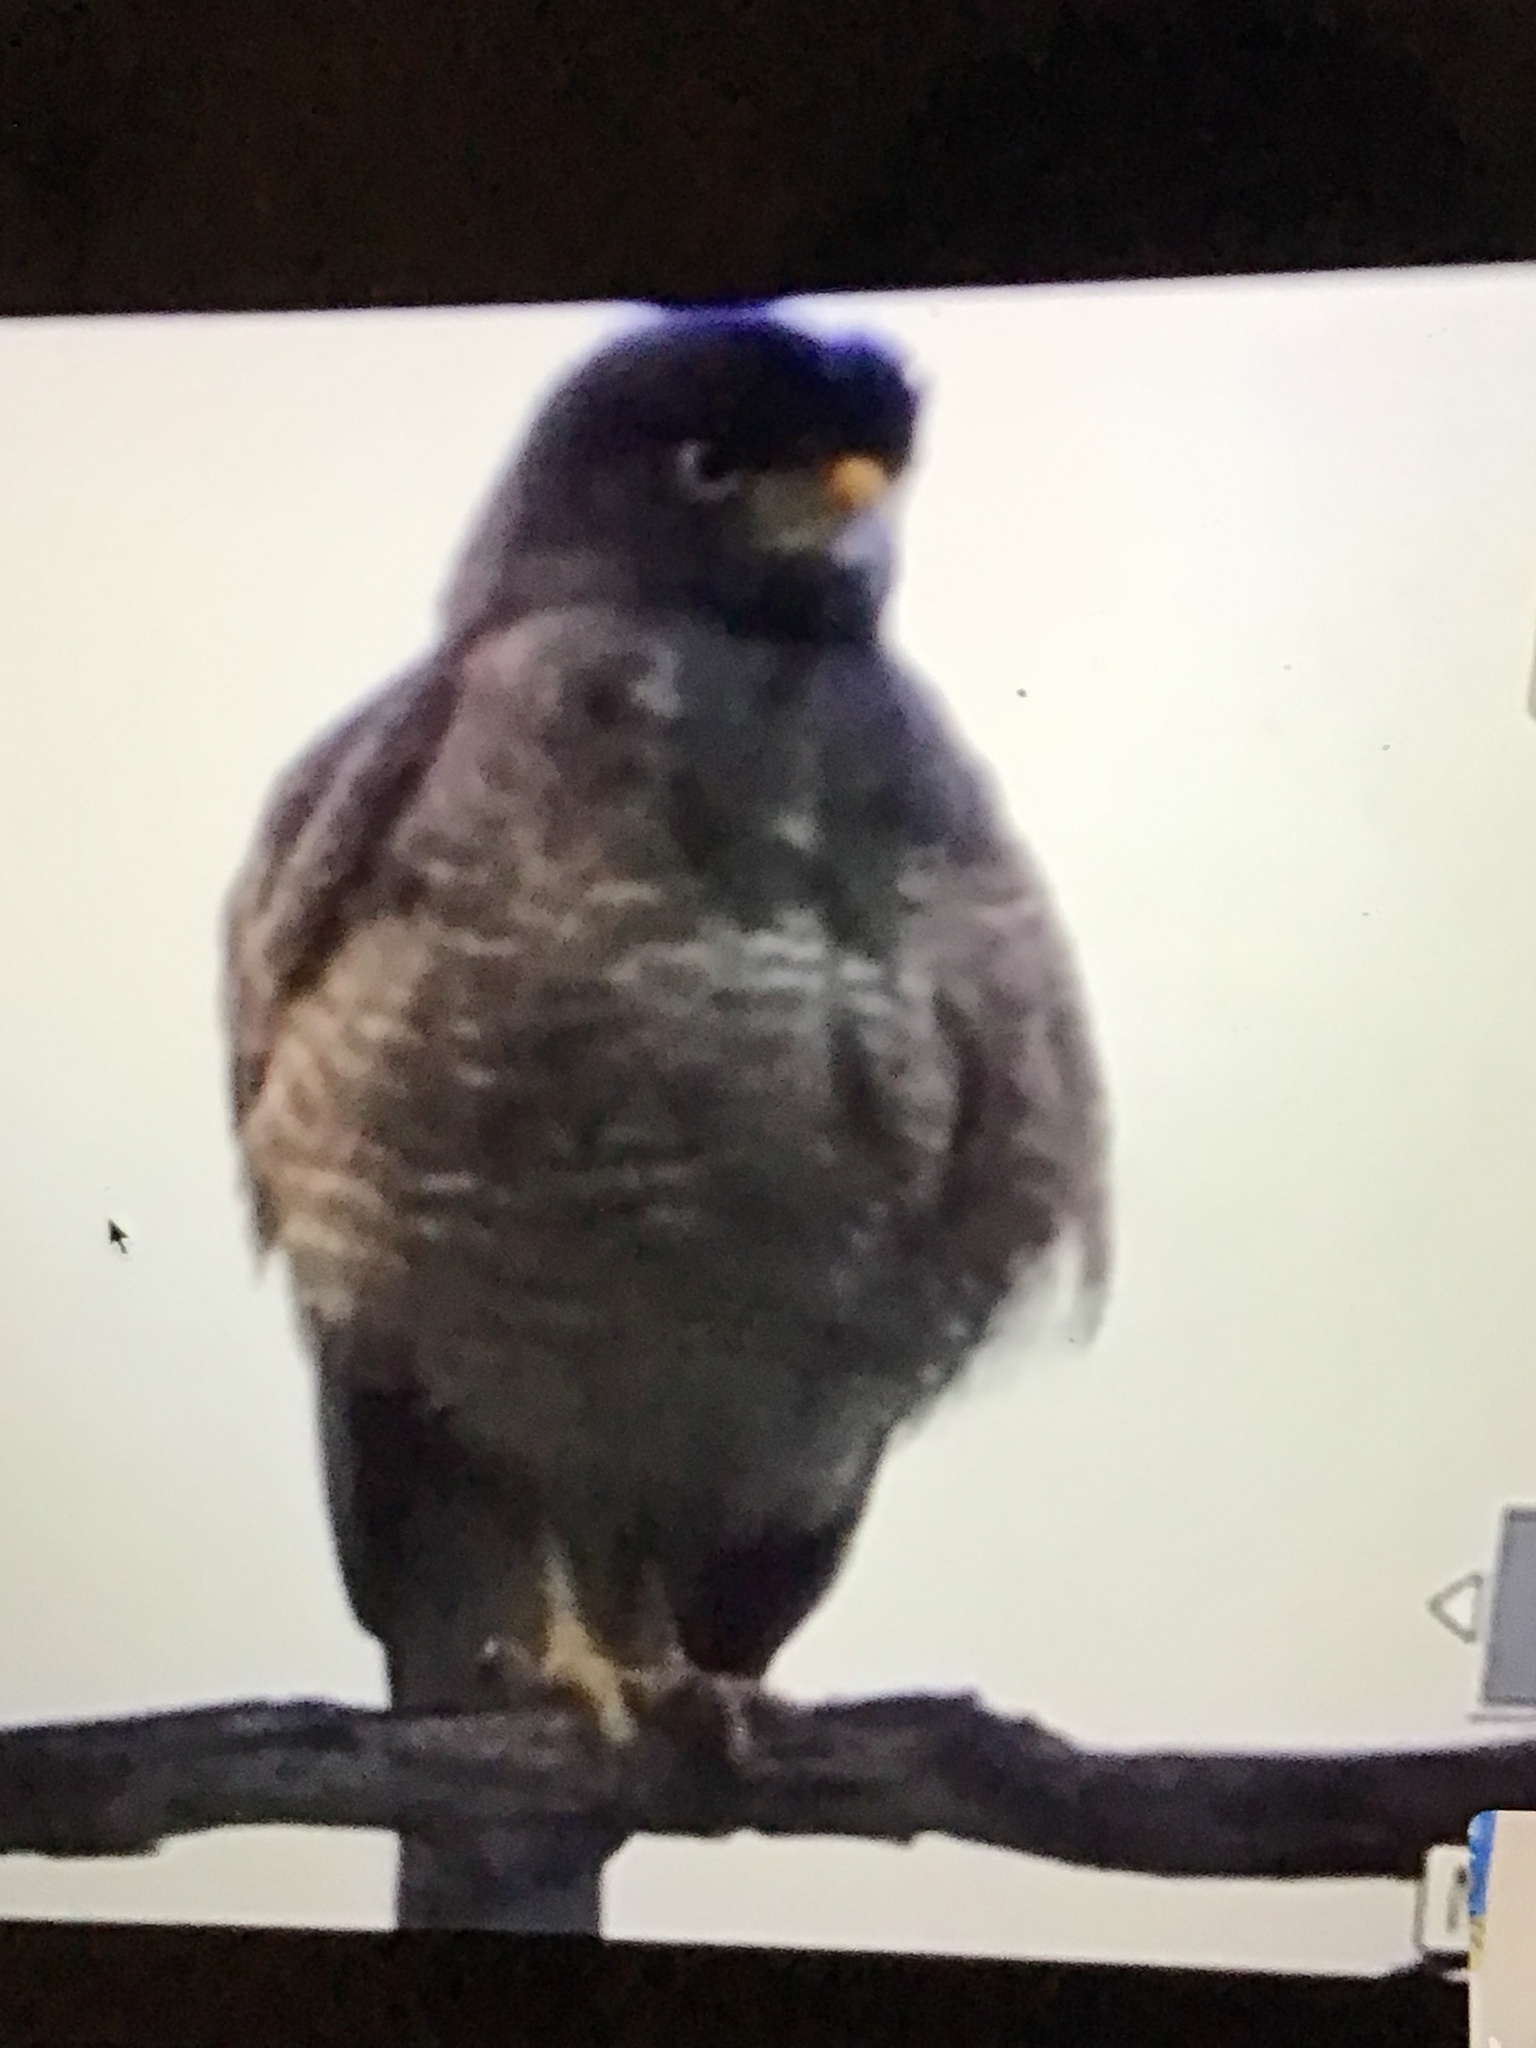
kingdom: Animalia
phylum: Chordata
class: Aves
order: Accipitriformes
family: Accipitridae
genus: Rupornis
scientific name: Rupornis magnirostris
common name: Roadside hawk
